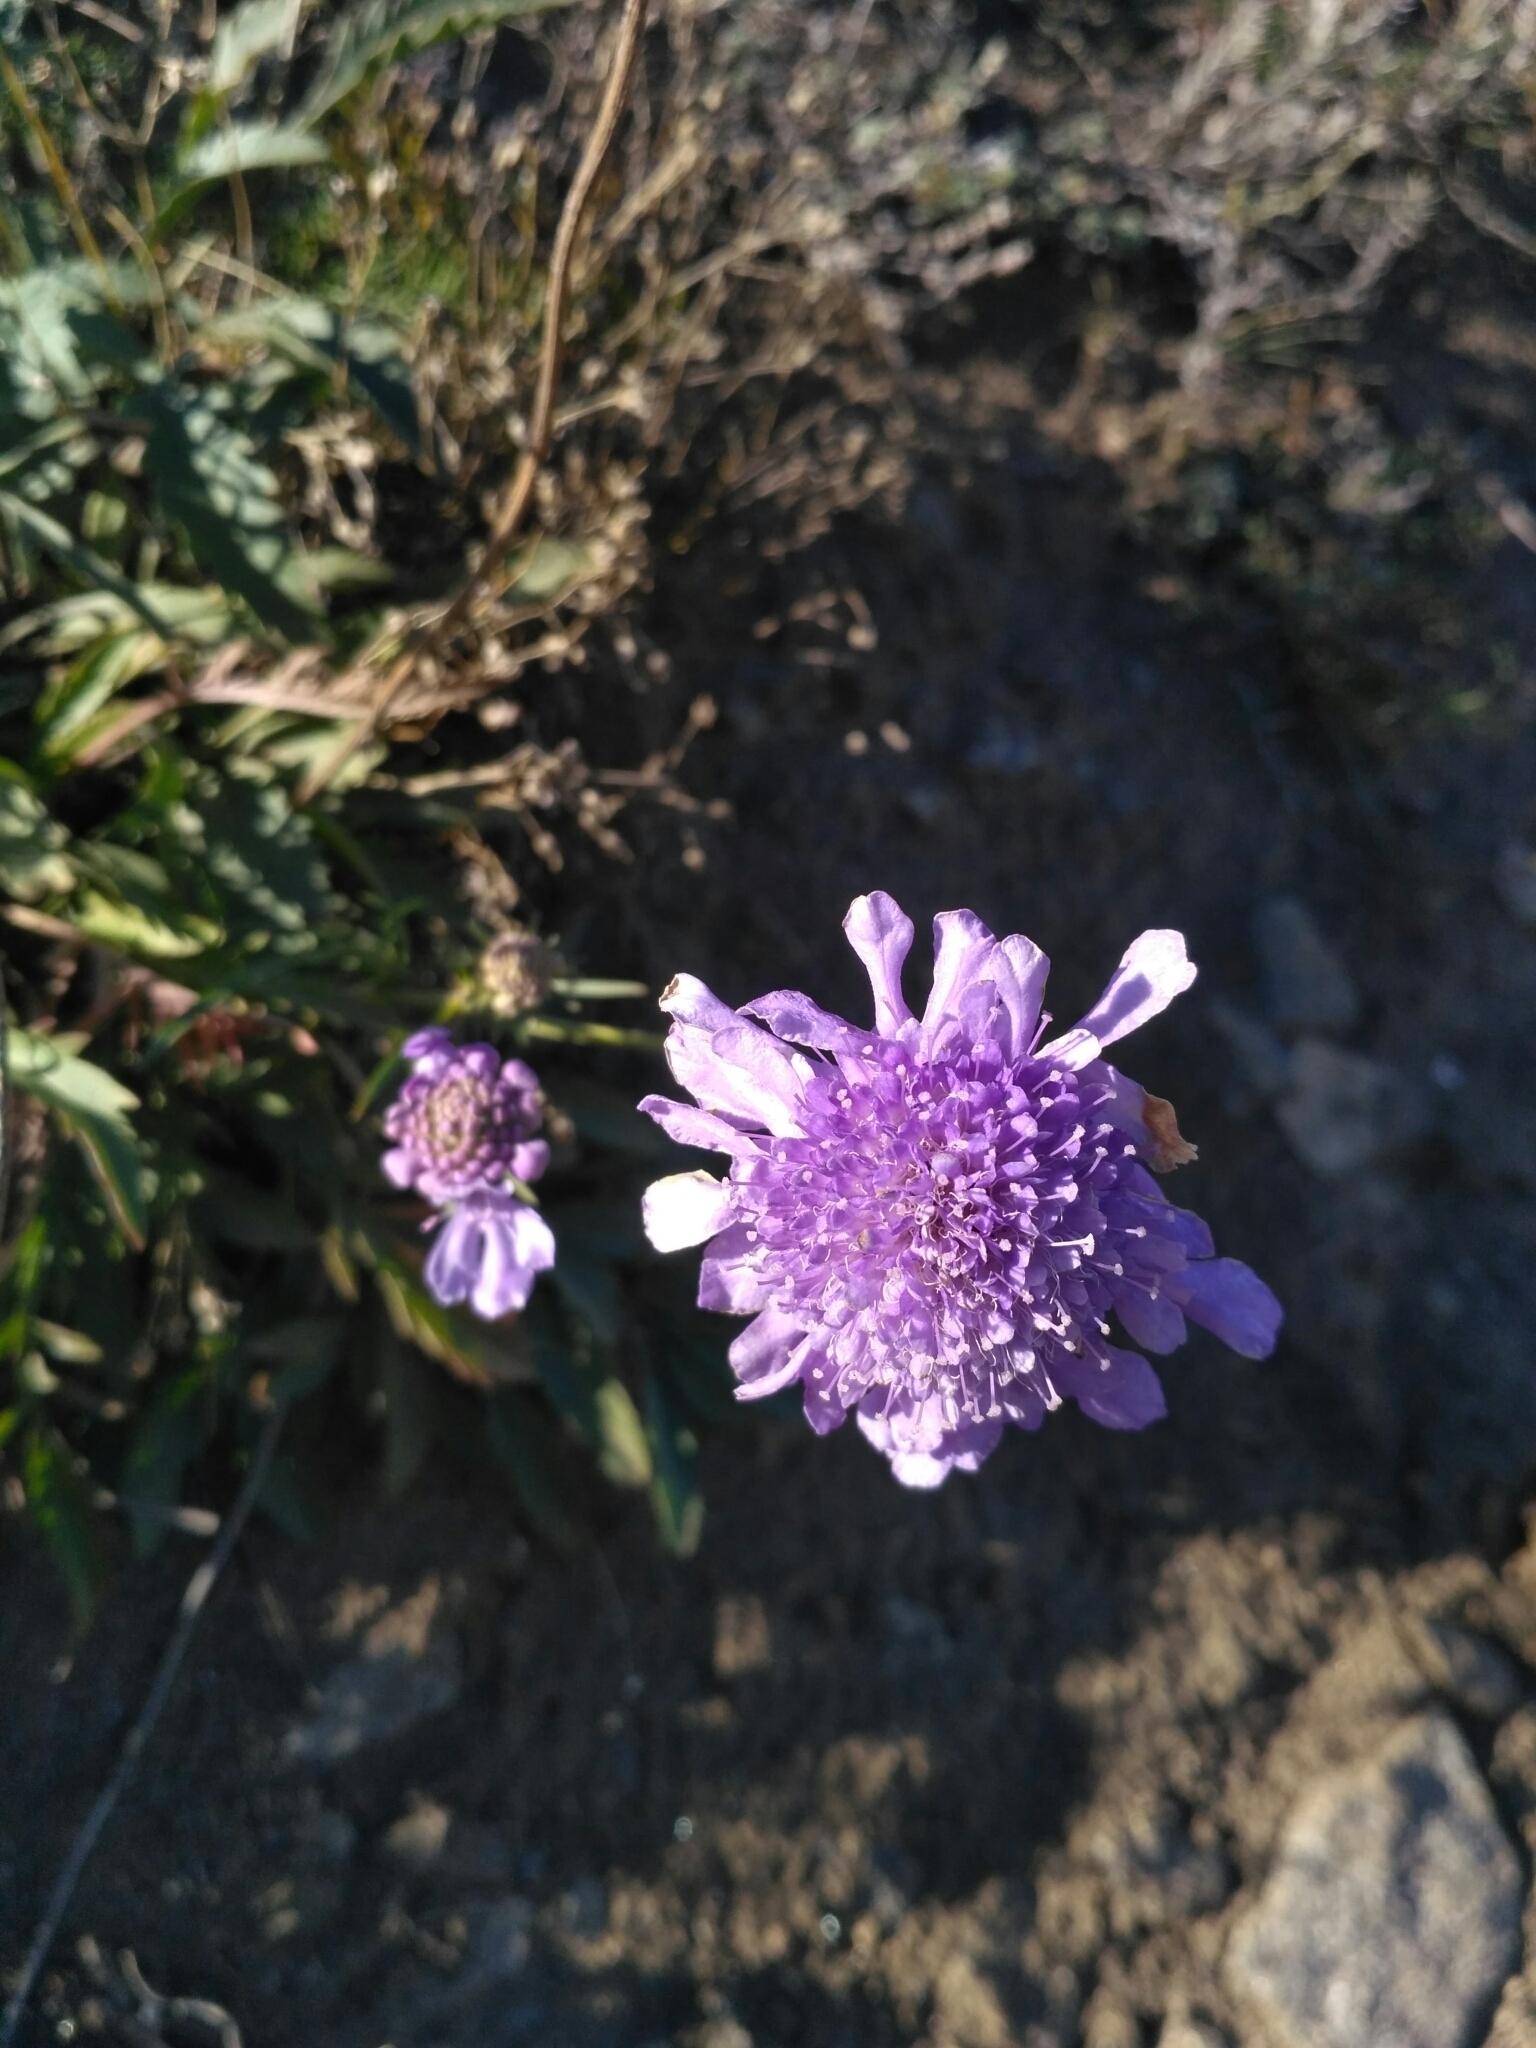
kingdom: Plantae
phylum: Tracheophyta
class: Magnoliopsida
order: Dipsacales
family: Caprifoliaceae
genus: Scabiosa
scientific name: Scabiosa comosa
